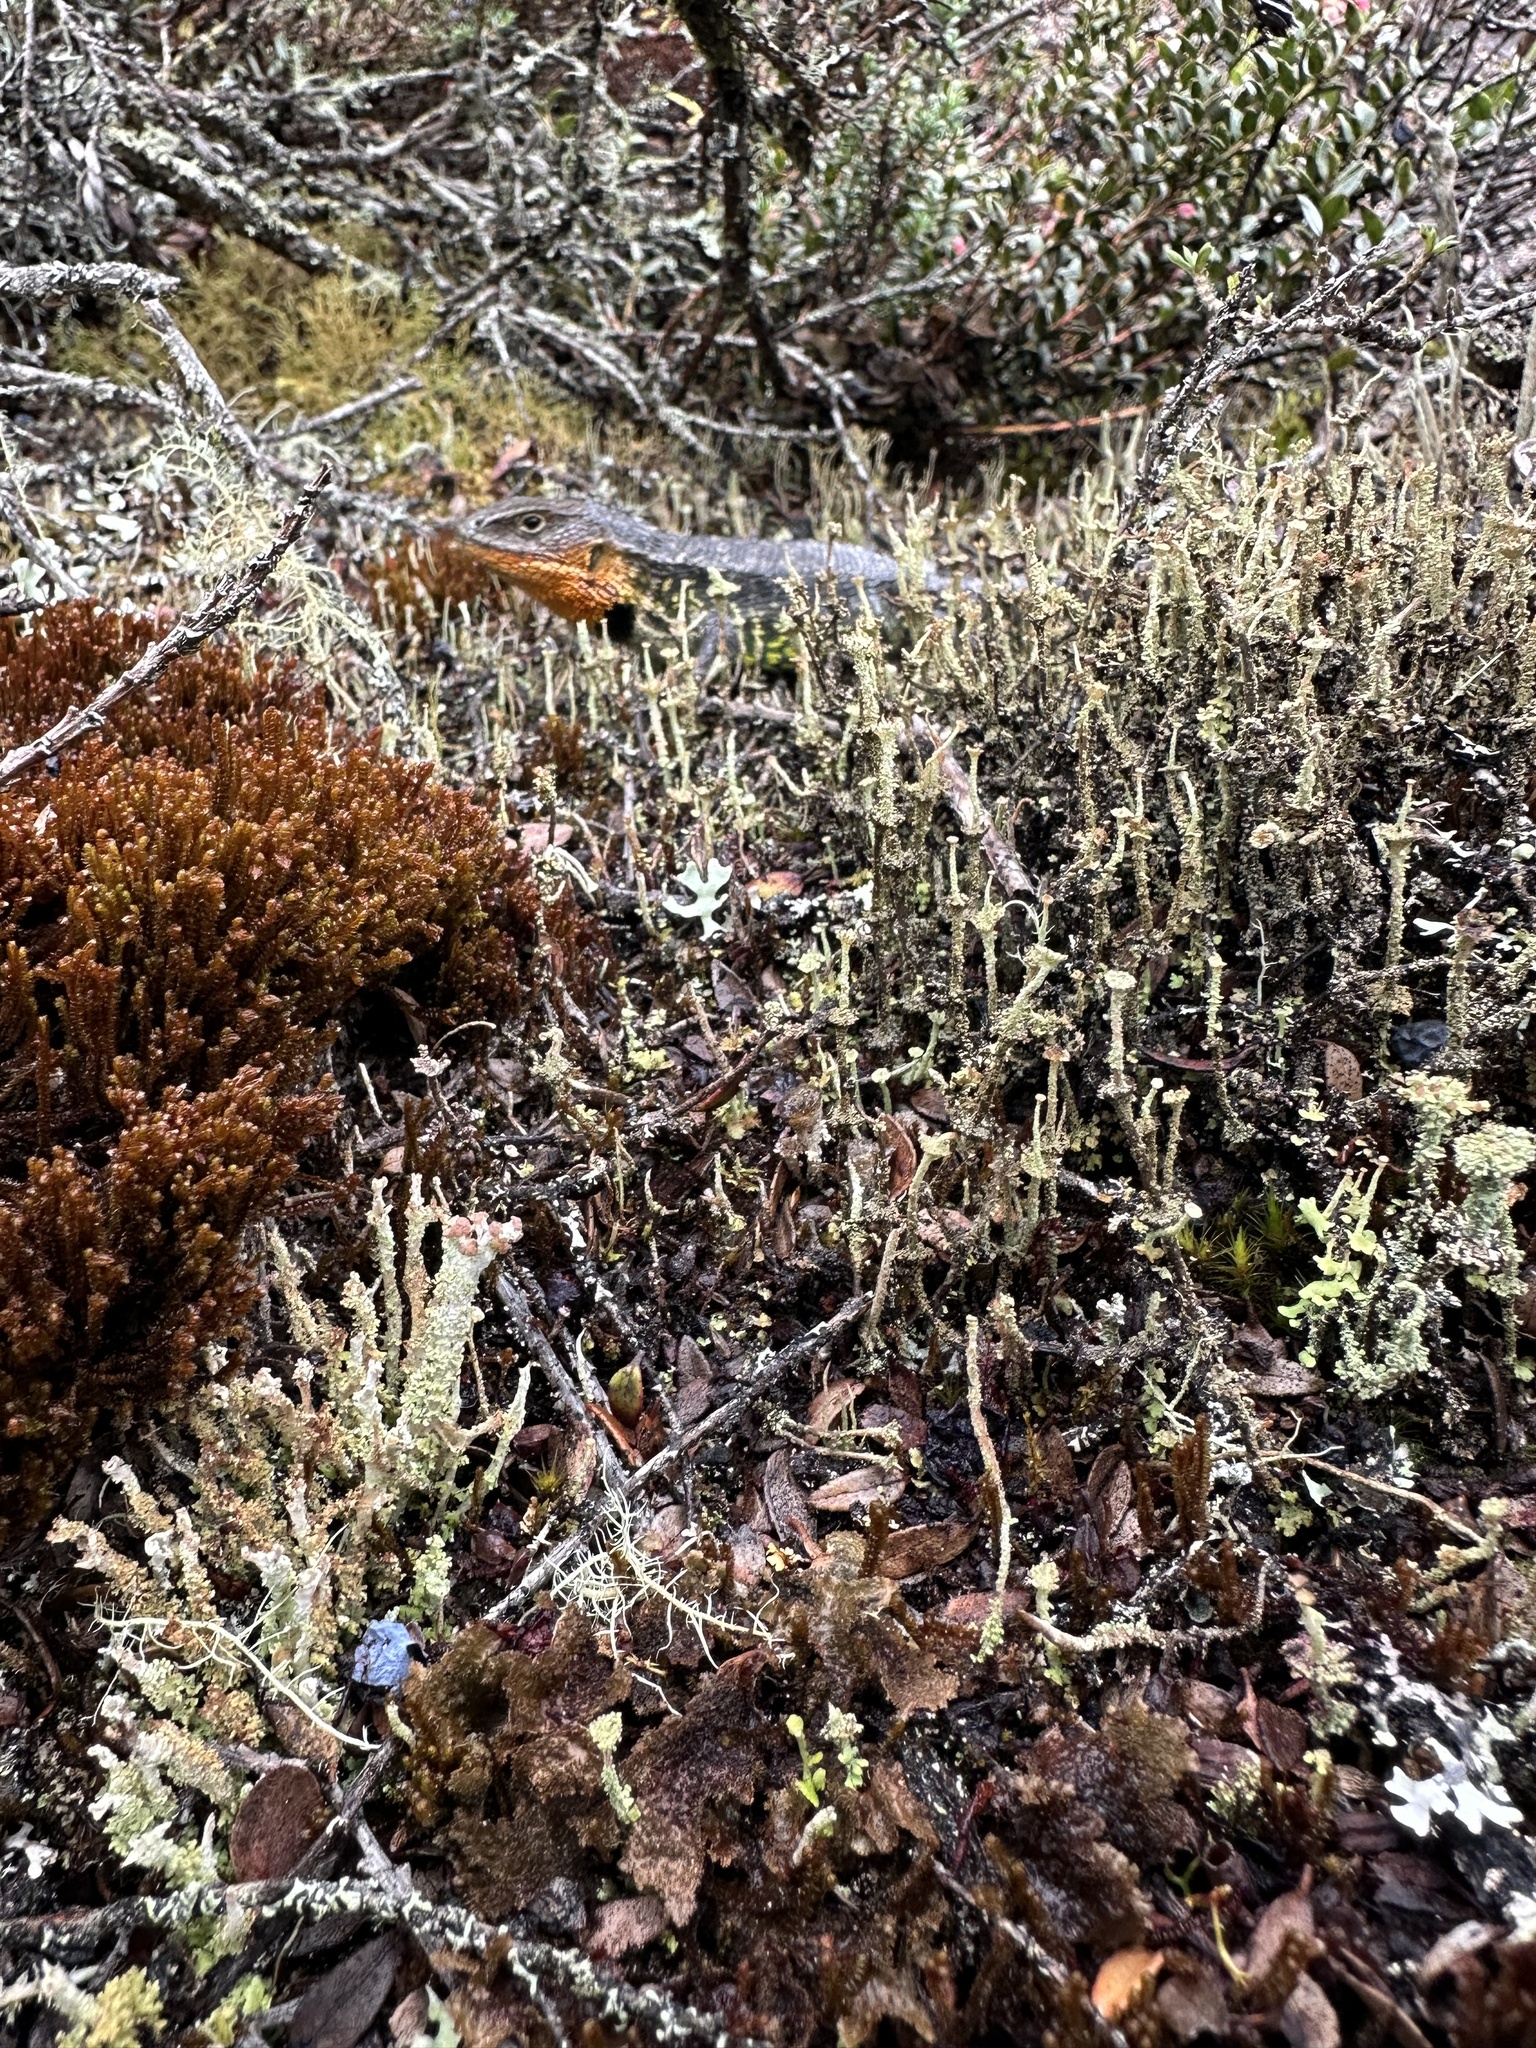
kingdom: Animalia
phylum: Chordata
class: Squamata
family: Tropiduridae
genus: Stenocercus
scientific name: Stenocercus trachycephalus
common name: Duméril's whorltail iguana
